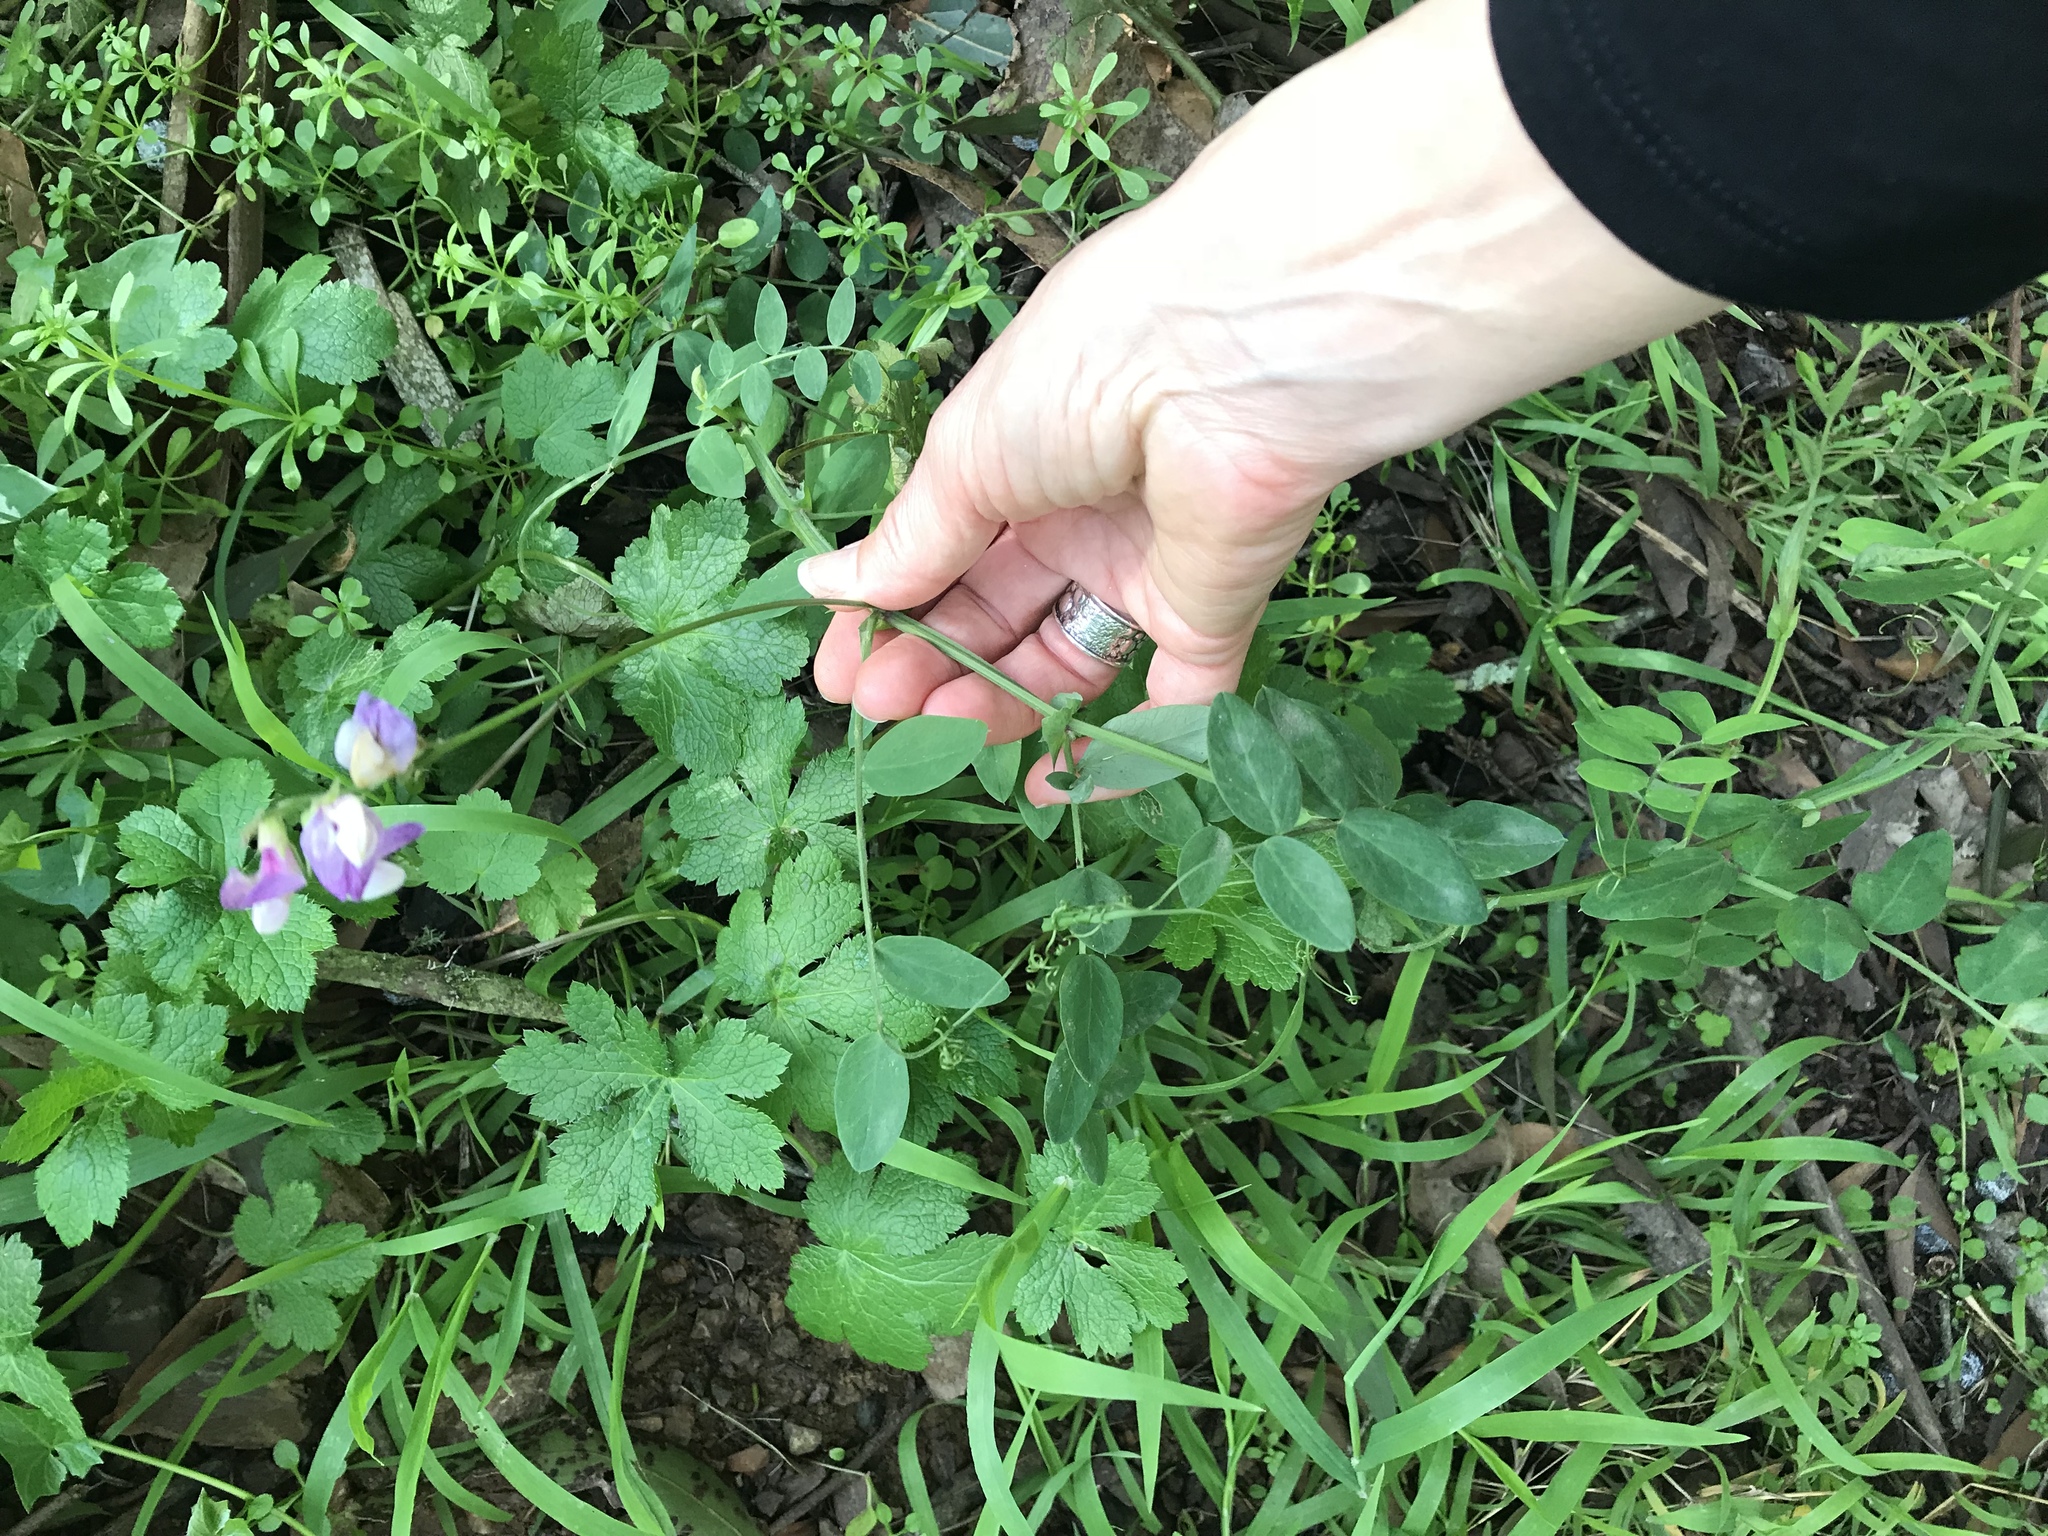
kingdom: Plantae
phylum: Tracheophyta
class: Magnoliopsida
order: Fabales
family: Fabaceae
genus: Lathyrus
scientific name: Lathyrus vestitus
